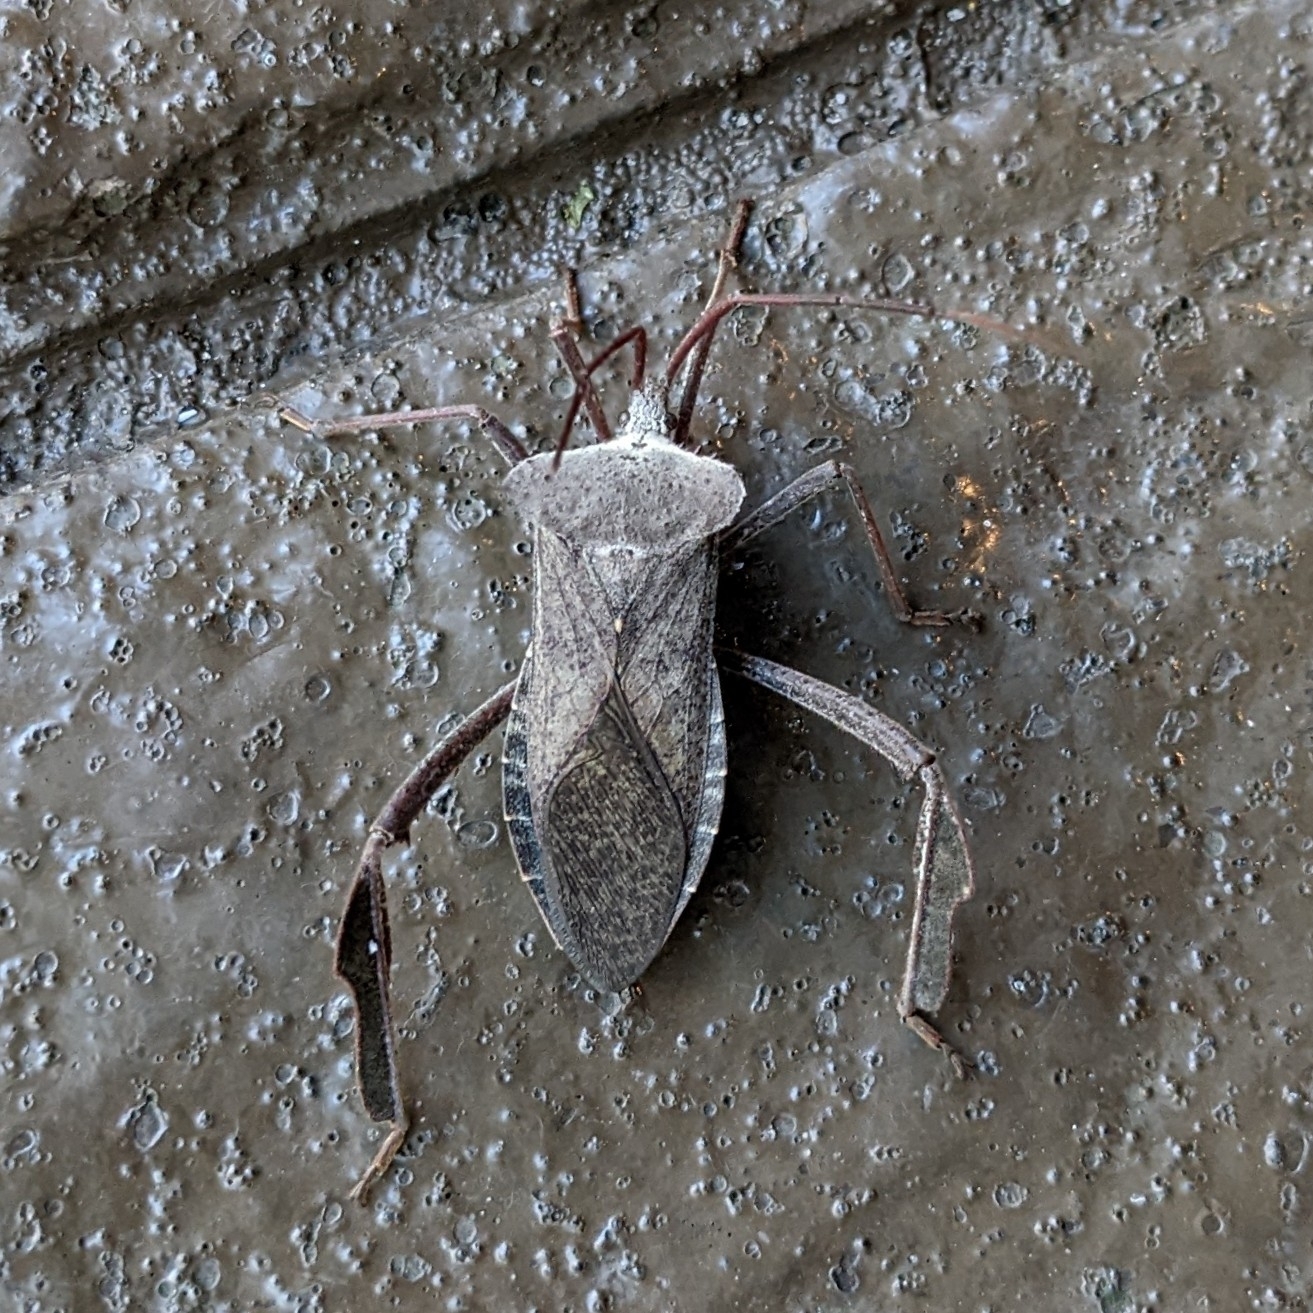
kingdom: Animalia
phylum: Arthropoda
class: Insecta
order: Hemiptera
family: Coreidae
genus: Acanthocephala
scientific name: Acanthocephala declivis
